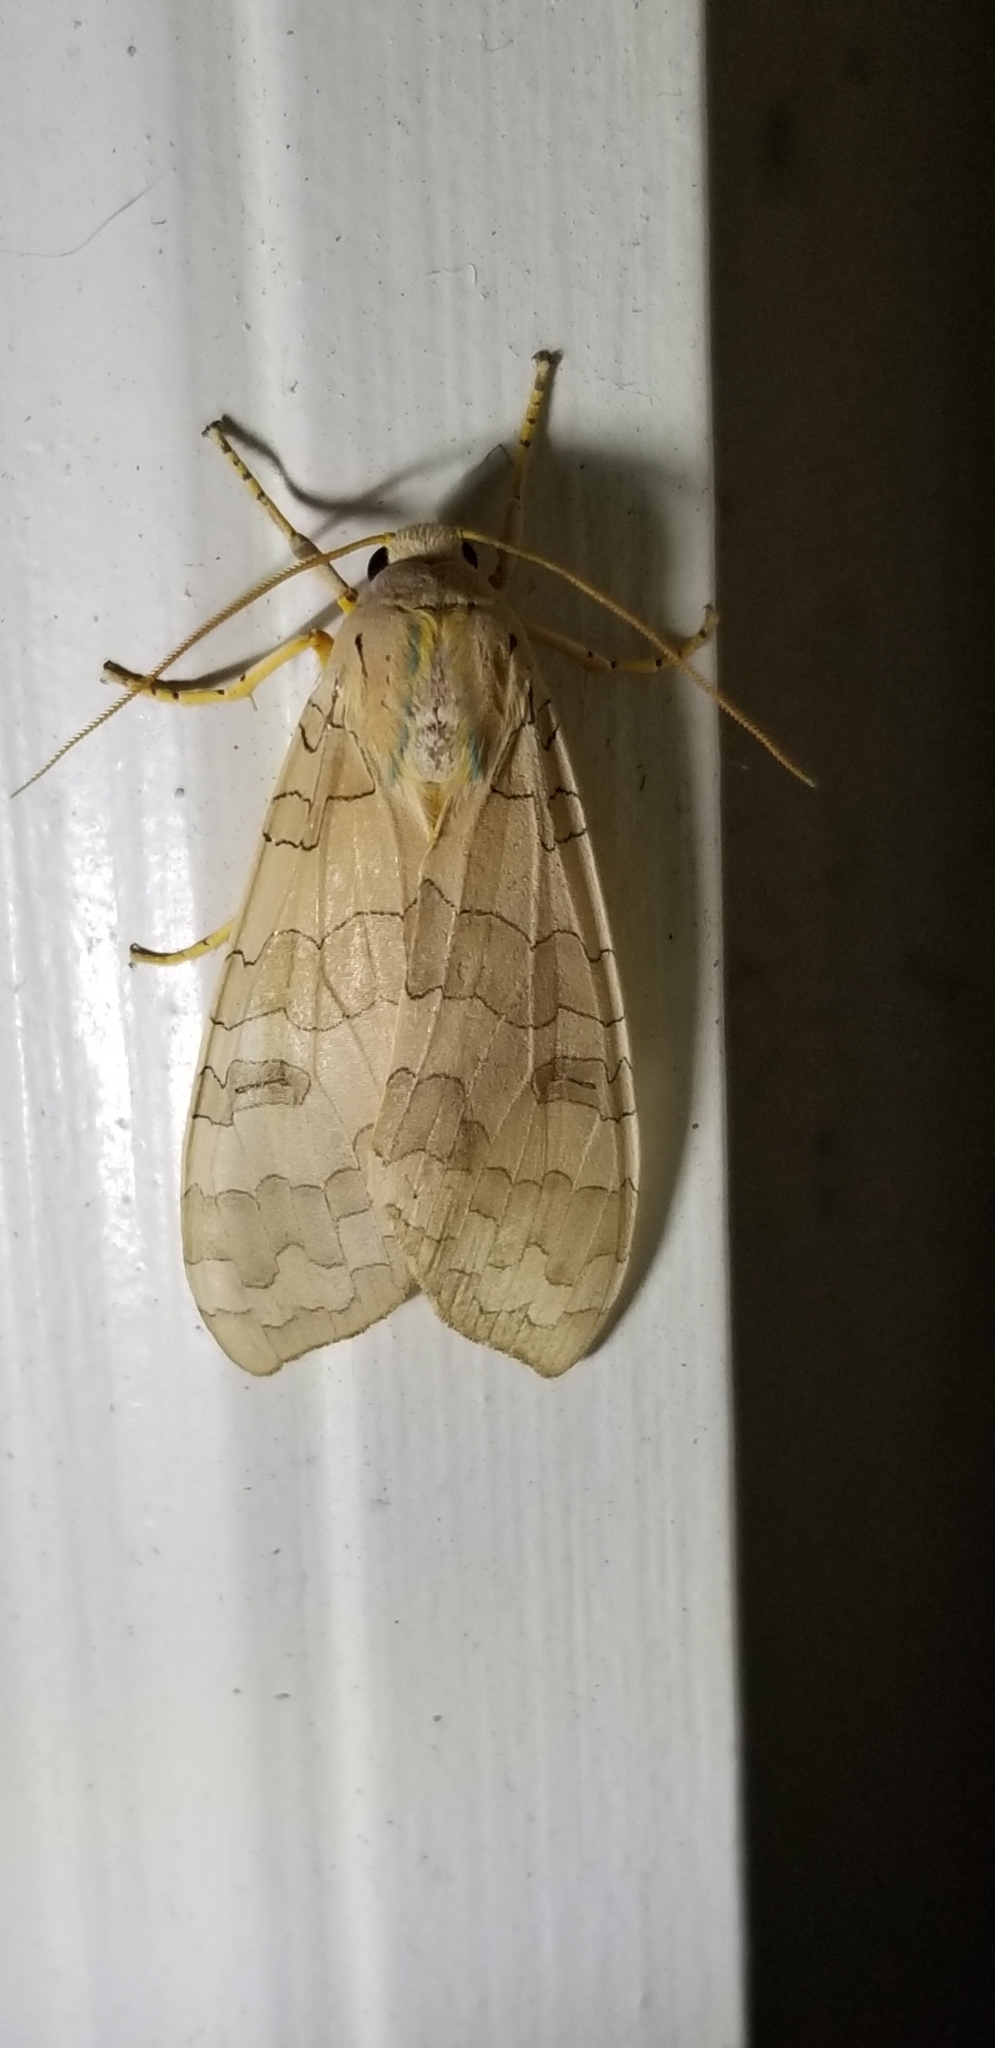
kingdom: Animalia
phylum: Arthropoda
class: Insecta
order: Lepidoptera
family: Erebidae
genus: Halysidota
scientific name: Halysidota
